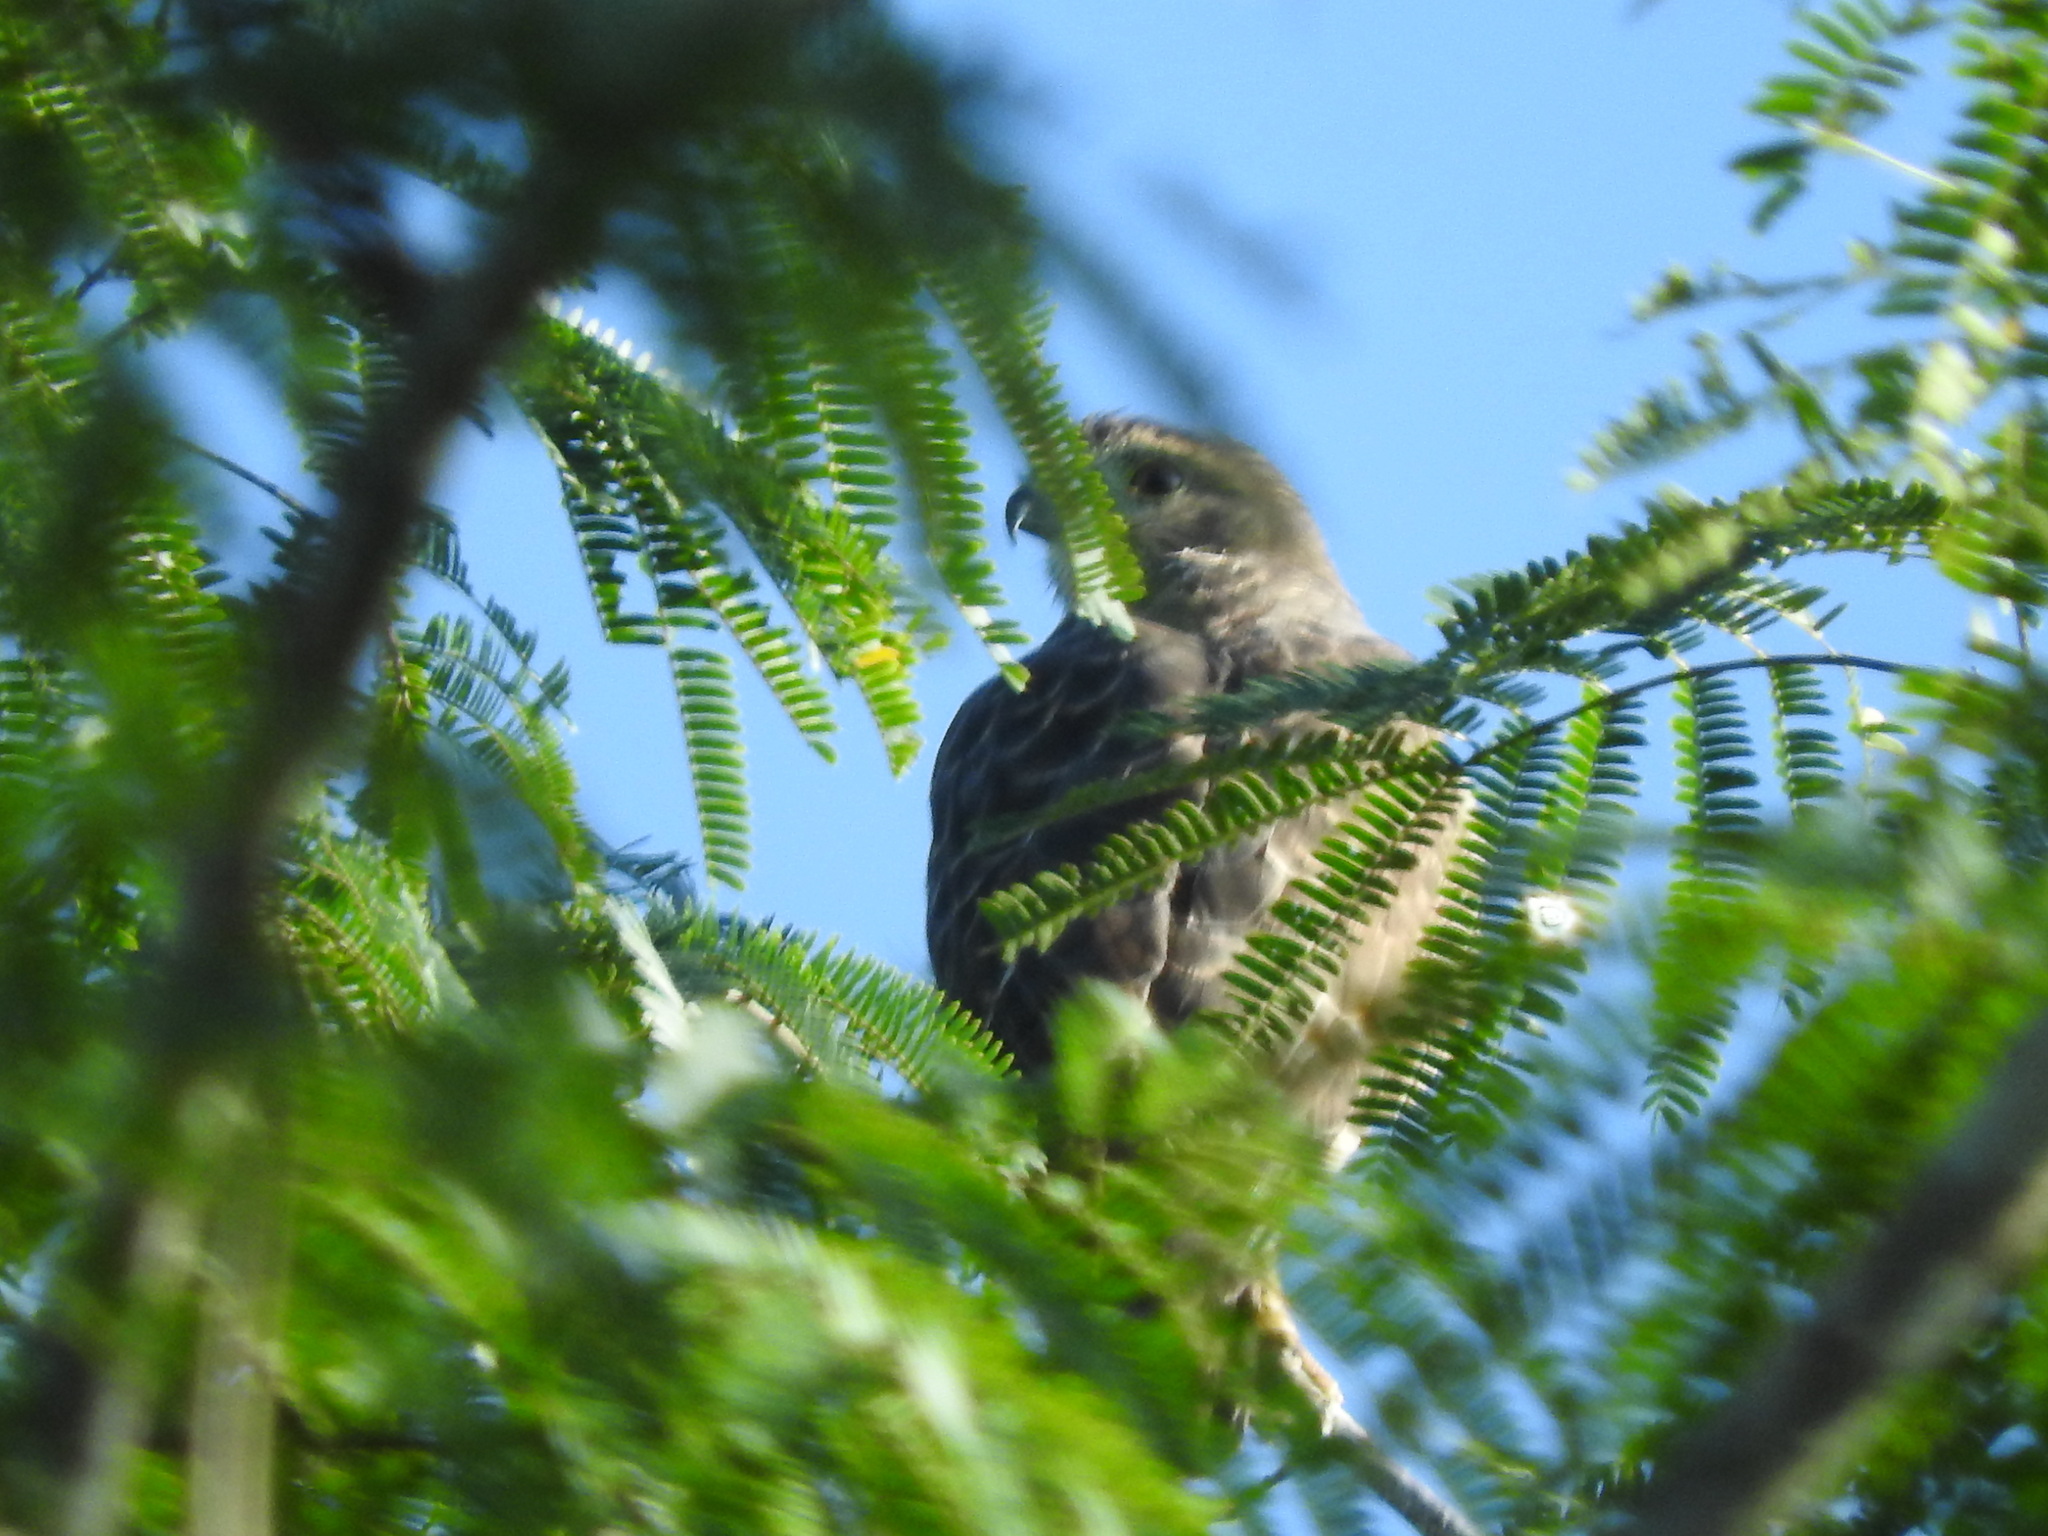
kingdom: Animalia
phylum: Chordata
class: Aves
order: Accipitriformes
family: Accipitridae
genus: Rupornis
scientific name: Rupornis magnirostris
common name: Roadside hawk
